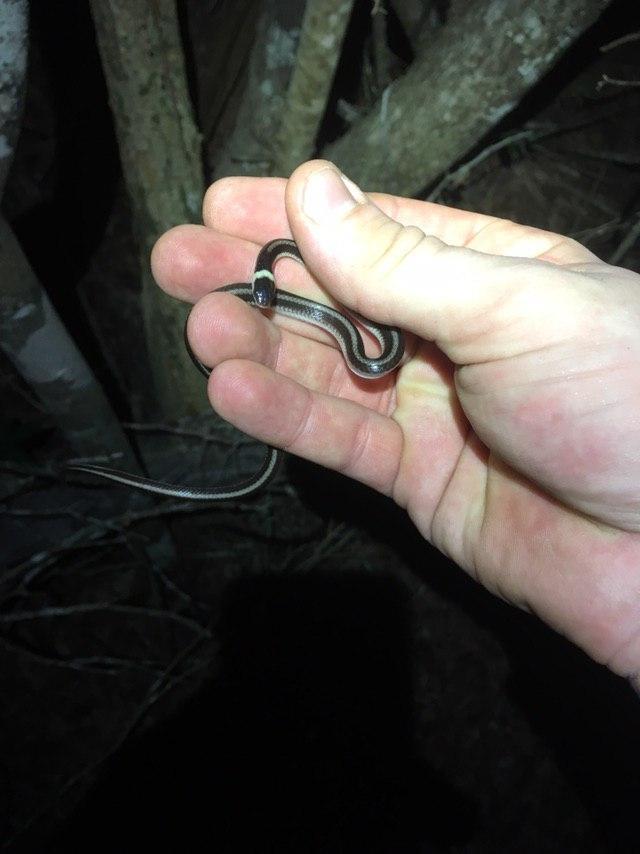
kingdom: Animalia
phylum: Chordata
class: Squamata
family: Pseudoxyrhophiidae
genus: Heteroliodon
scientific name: Heteroliodon occipitalis
